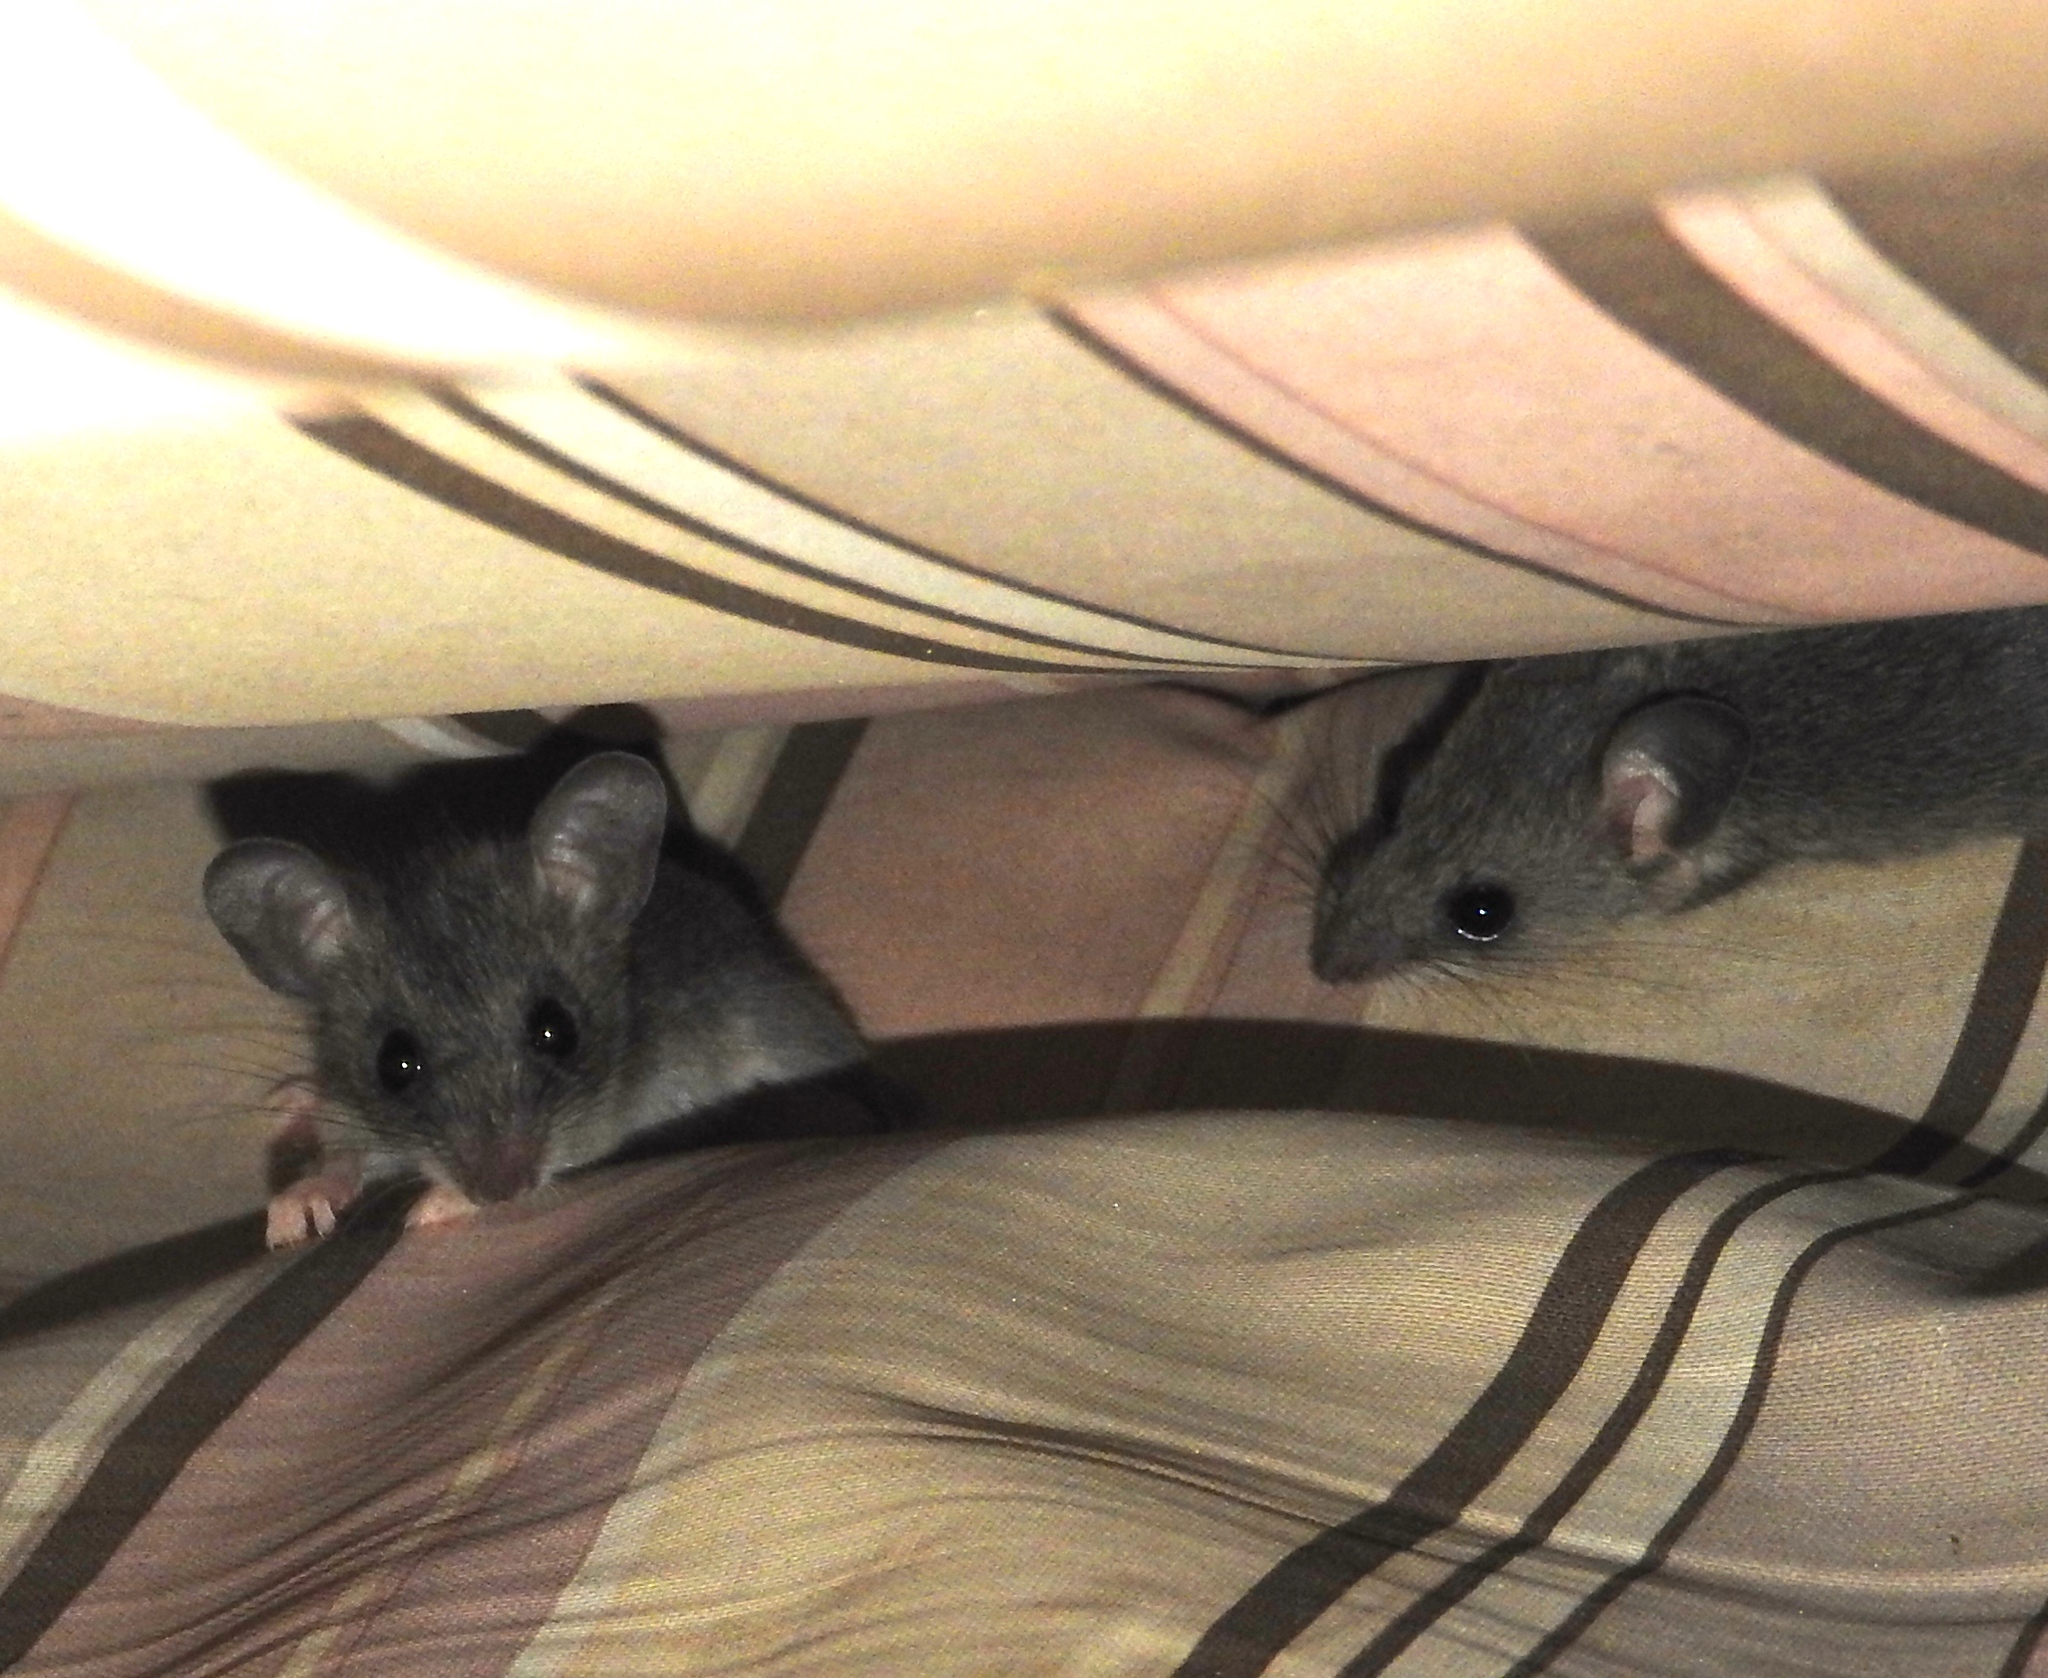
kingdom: Animalia
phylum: Chordata
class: Mammalia
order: Rodentia
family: Cricetidae
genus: Peromyscus
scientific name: Peromyscus simulus
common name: Sinaloan deermouse
